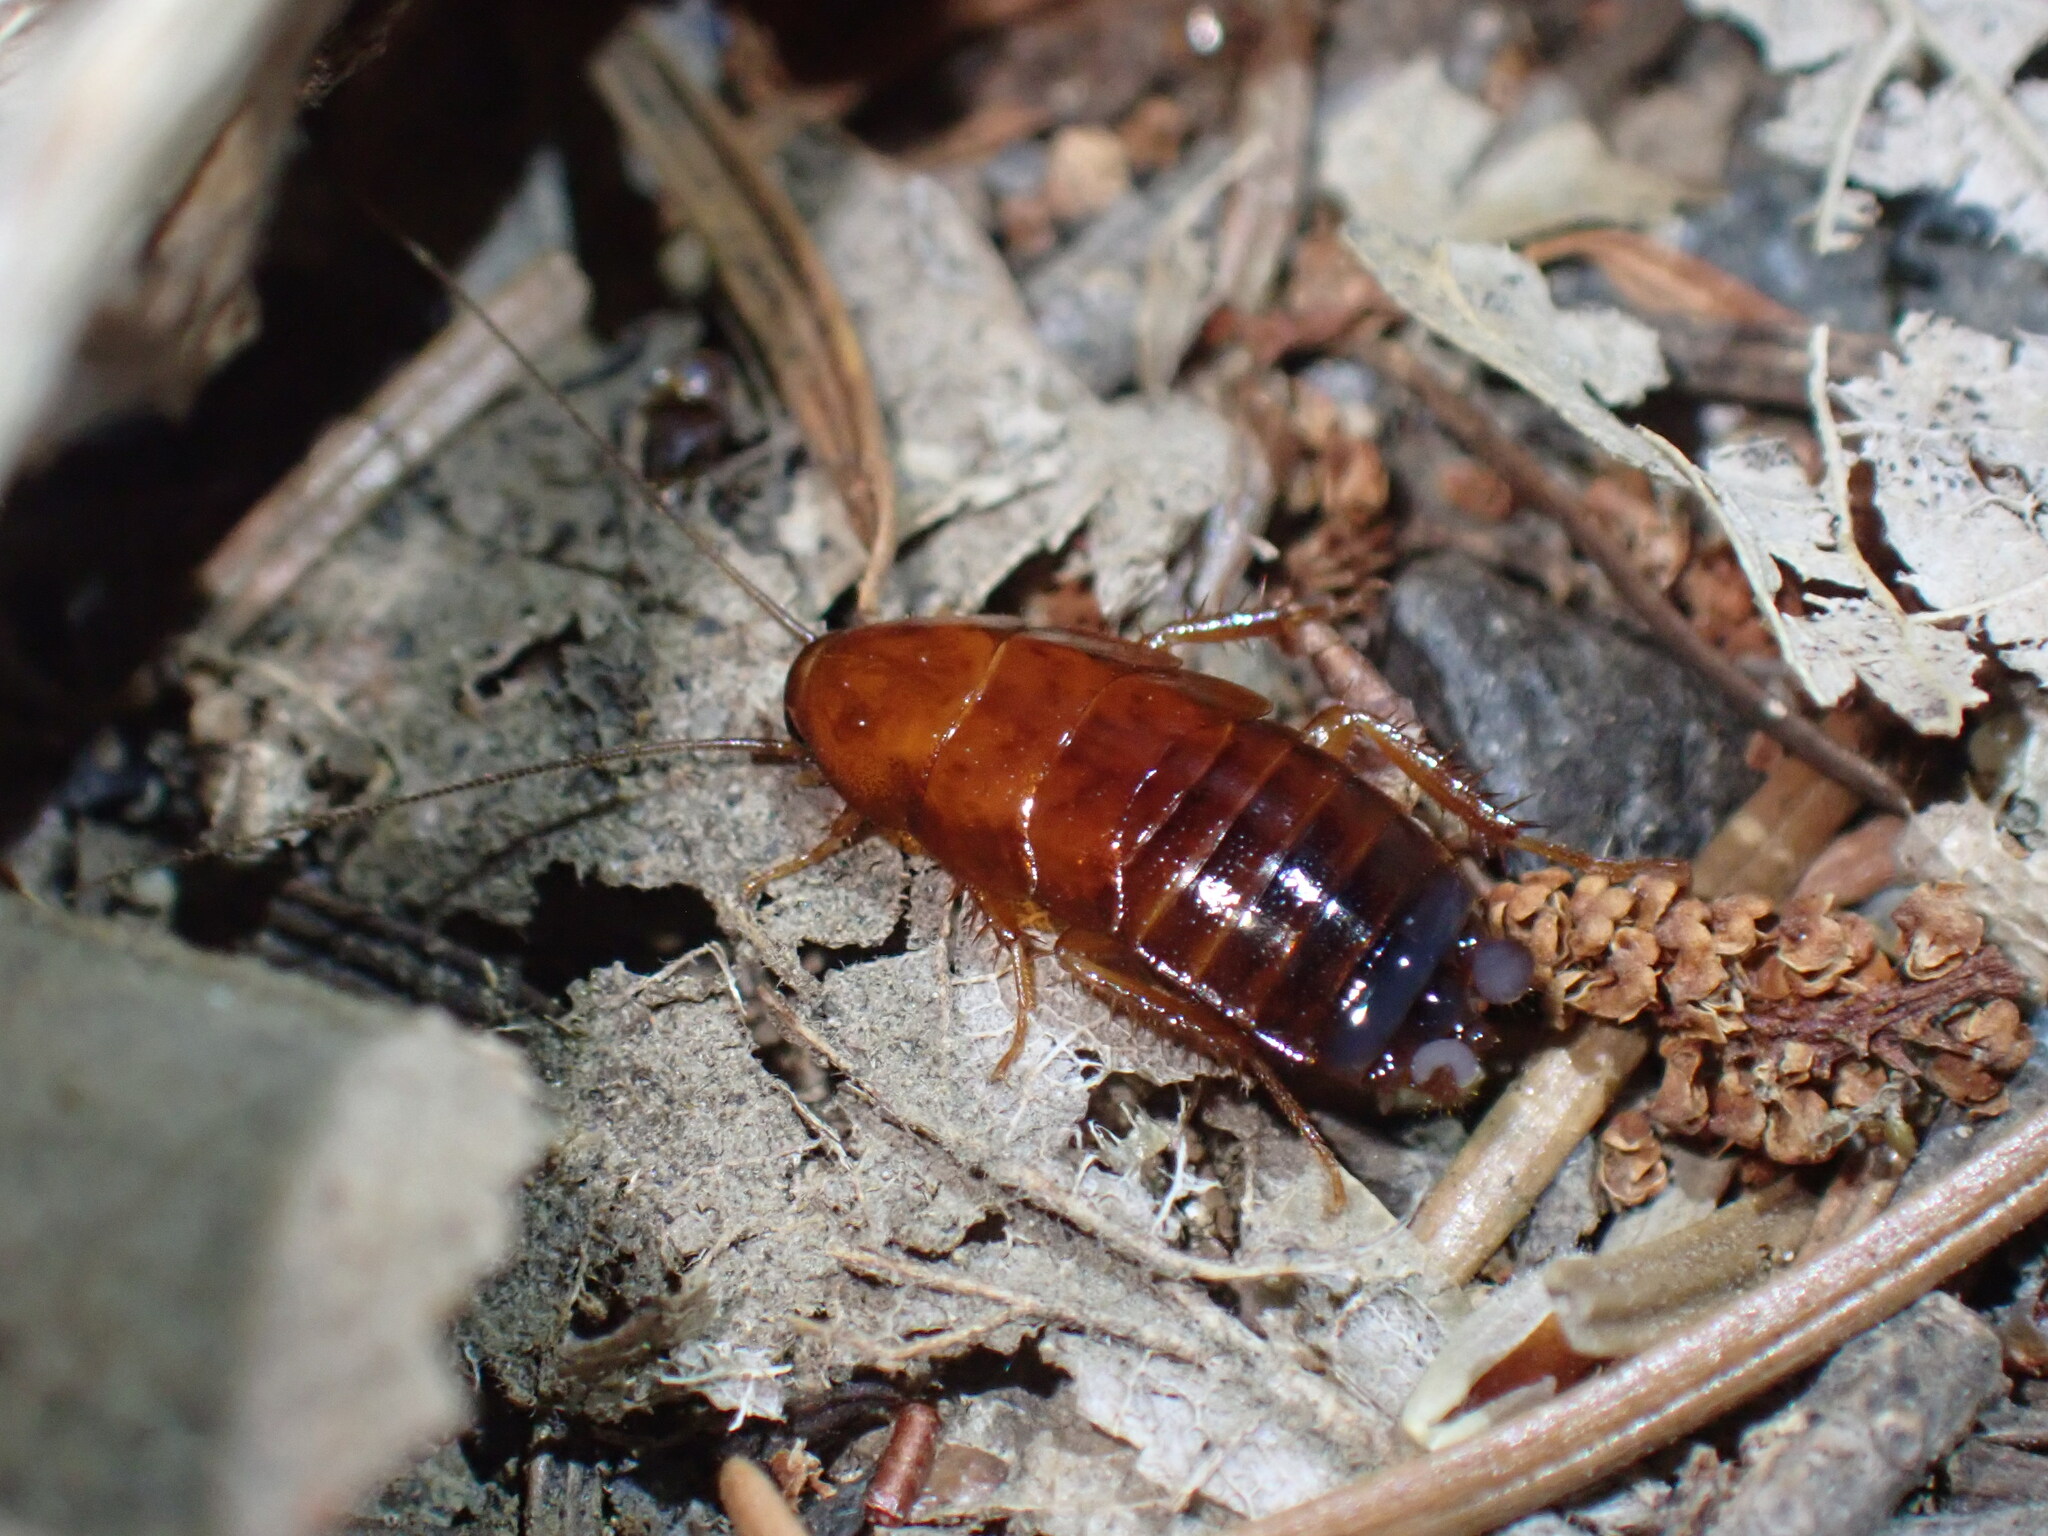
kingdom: Animalia
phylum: Arthropoda
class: Insecta
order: Blattodea
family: Ectobiidae
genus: Parcoblatta
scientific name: Parcoblatta americana
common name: Western wood cockroach
